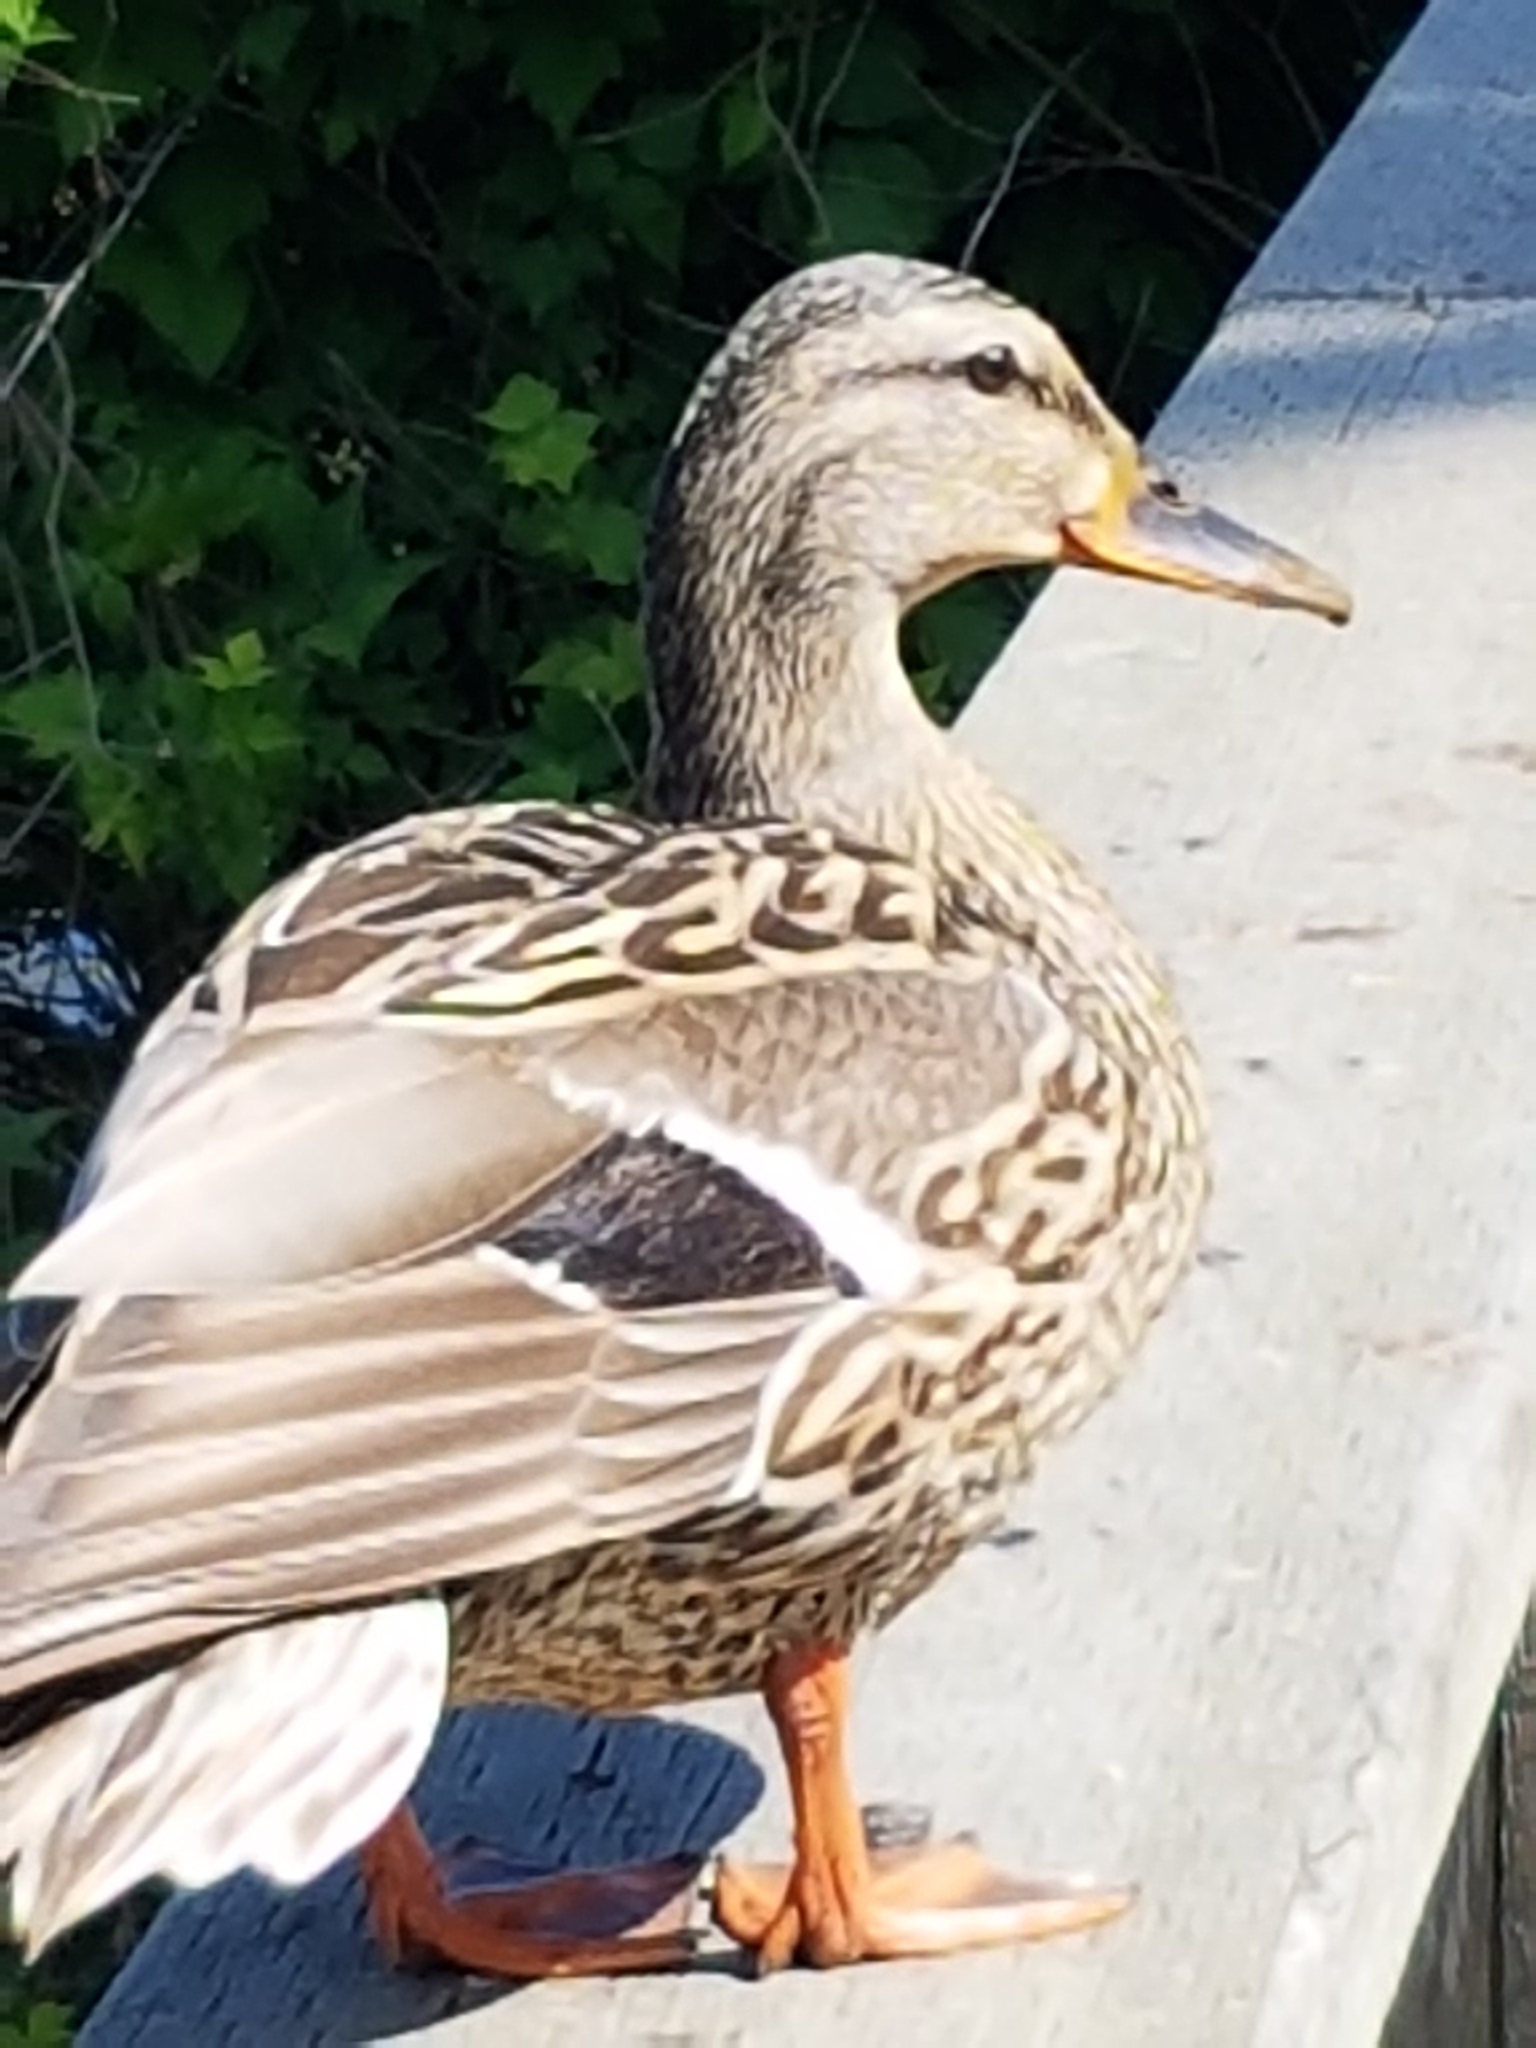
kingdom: Animalia
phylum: Chordata
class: Aves
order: Anseriformes
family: Anatidae
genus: Anas
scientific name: Anas platyrhynchos
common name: Mallard
